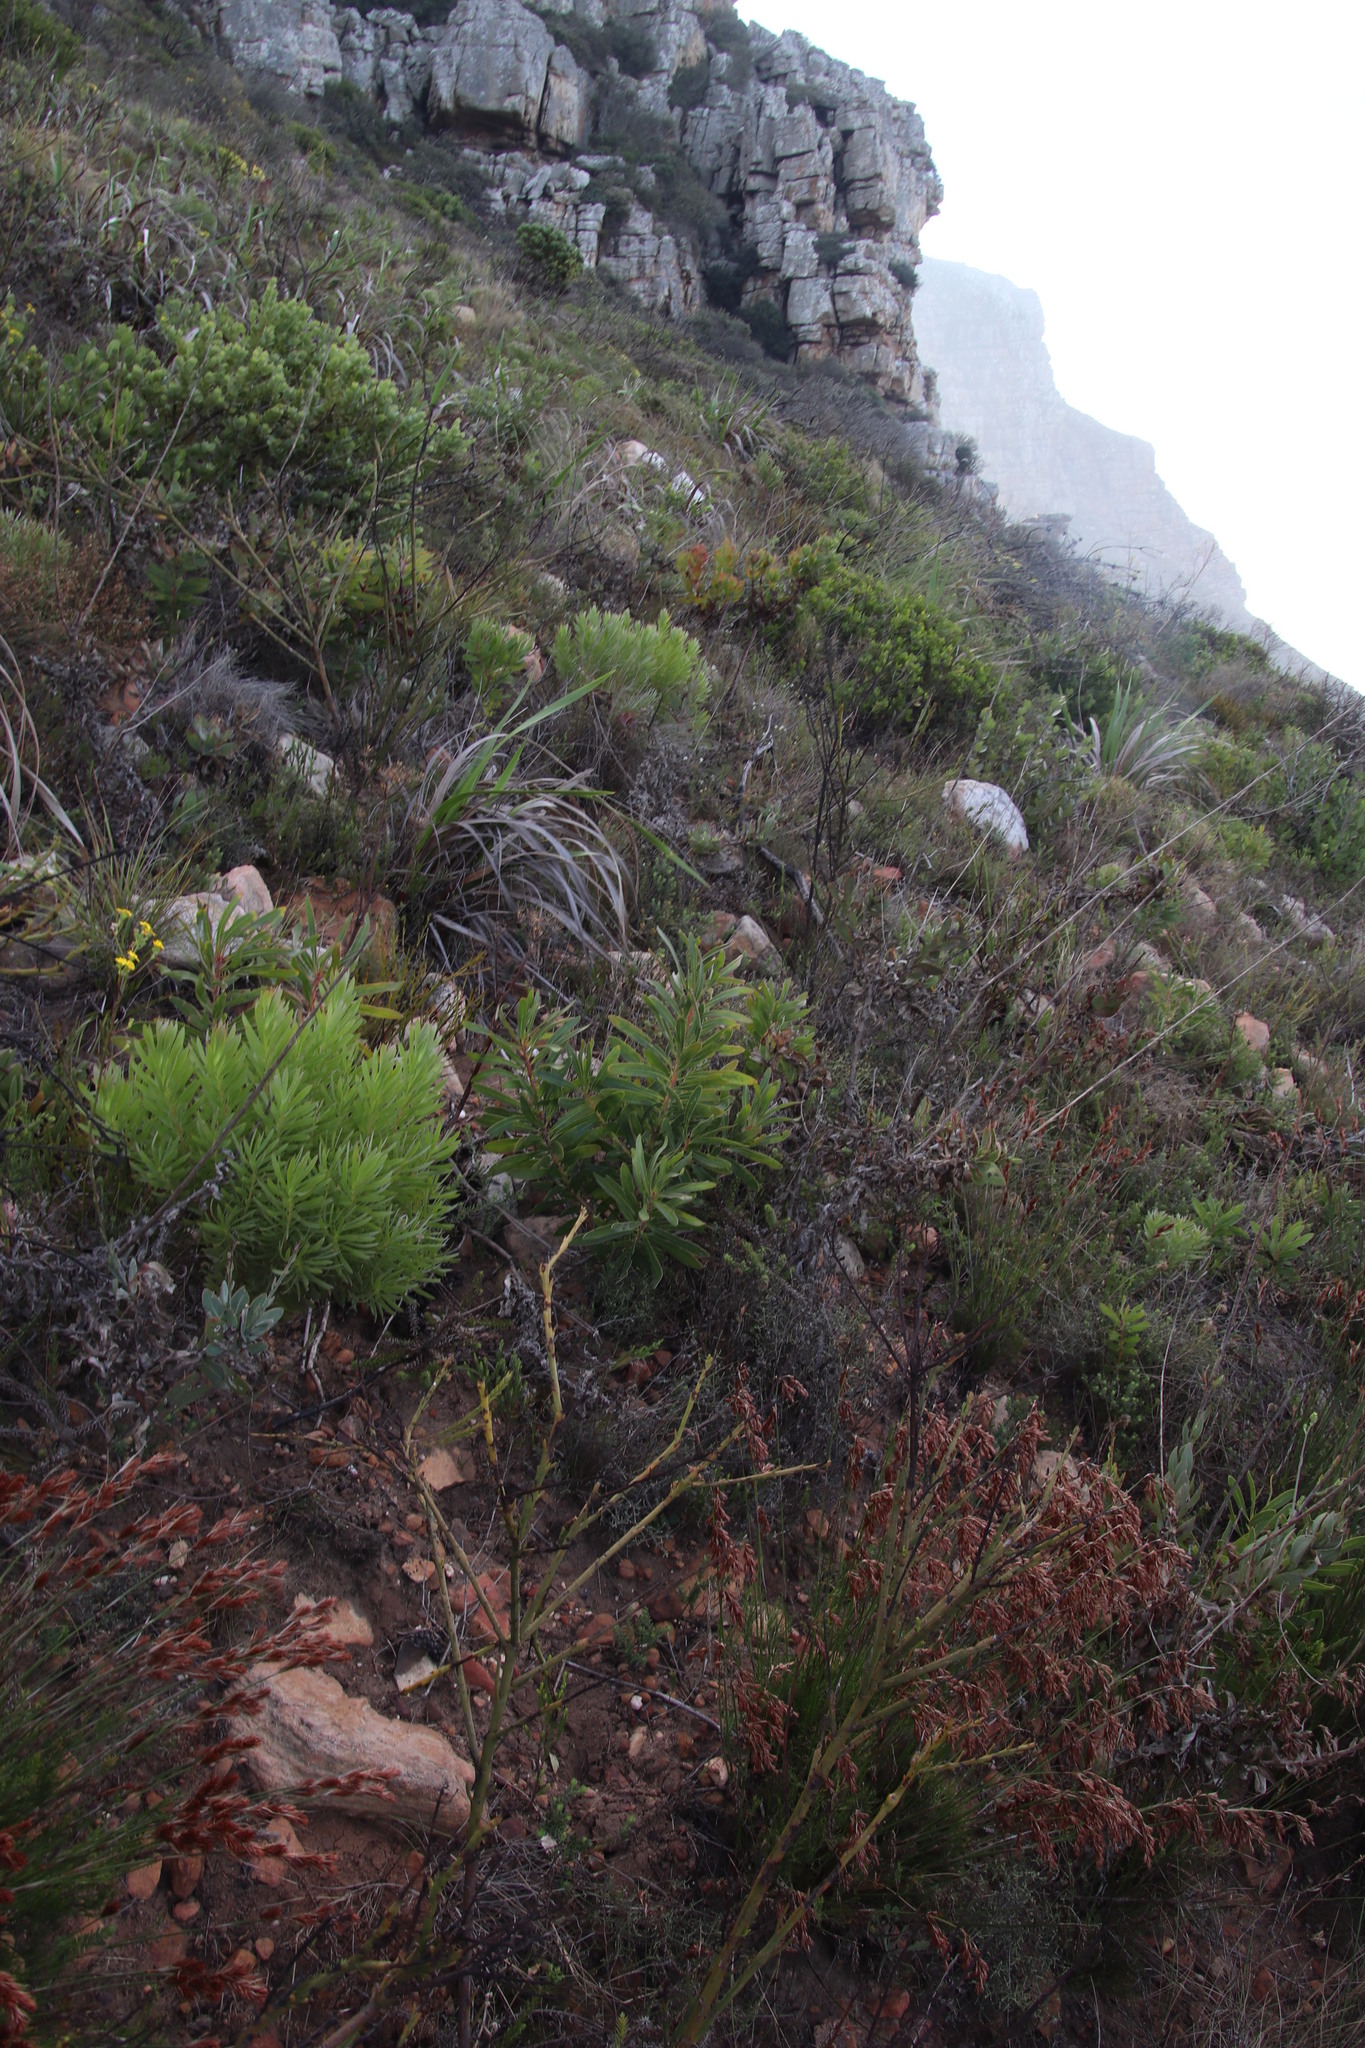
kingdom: Plantae
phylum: Tracheophyta
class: Magnoliopsida
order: Proteales
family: Proteaceae
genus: Protea
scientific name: Protea lepidocarpodendron
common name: Black-bearded protea
